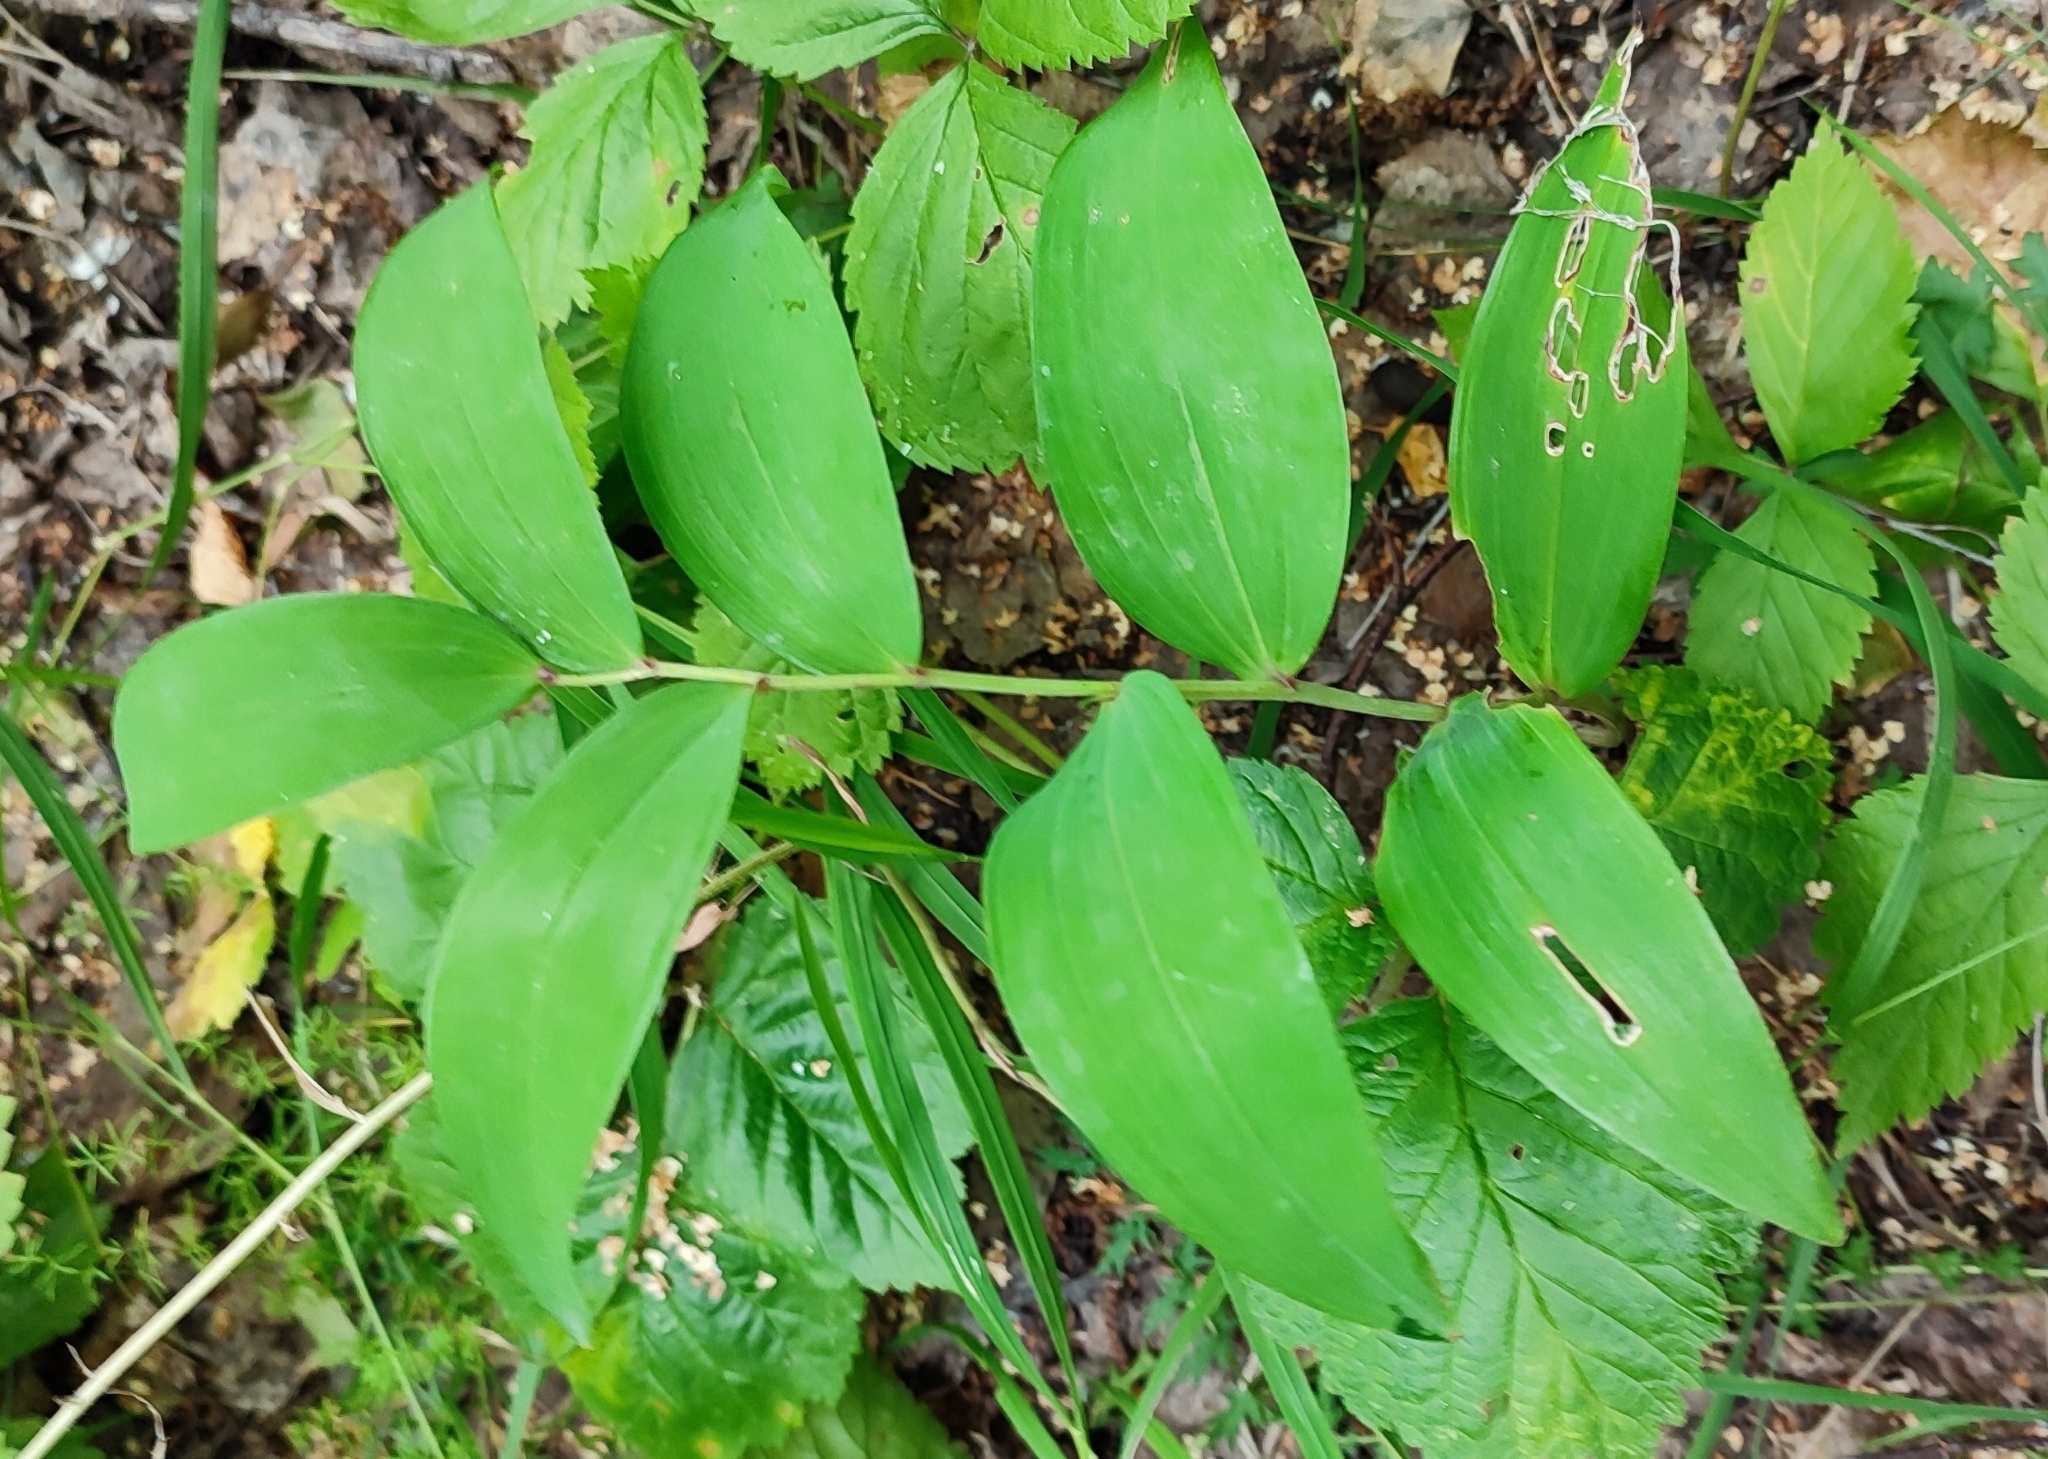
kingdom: Plantae
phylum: Tracheophyta
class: Liliopsida
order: Asparagales
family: Asparagaceae
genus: Polygonatum
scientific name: Polygonatum odoratum
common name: Angular solomon's-seal
